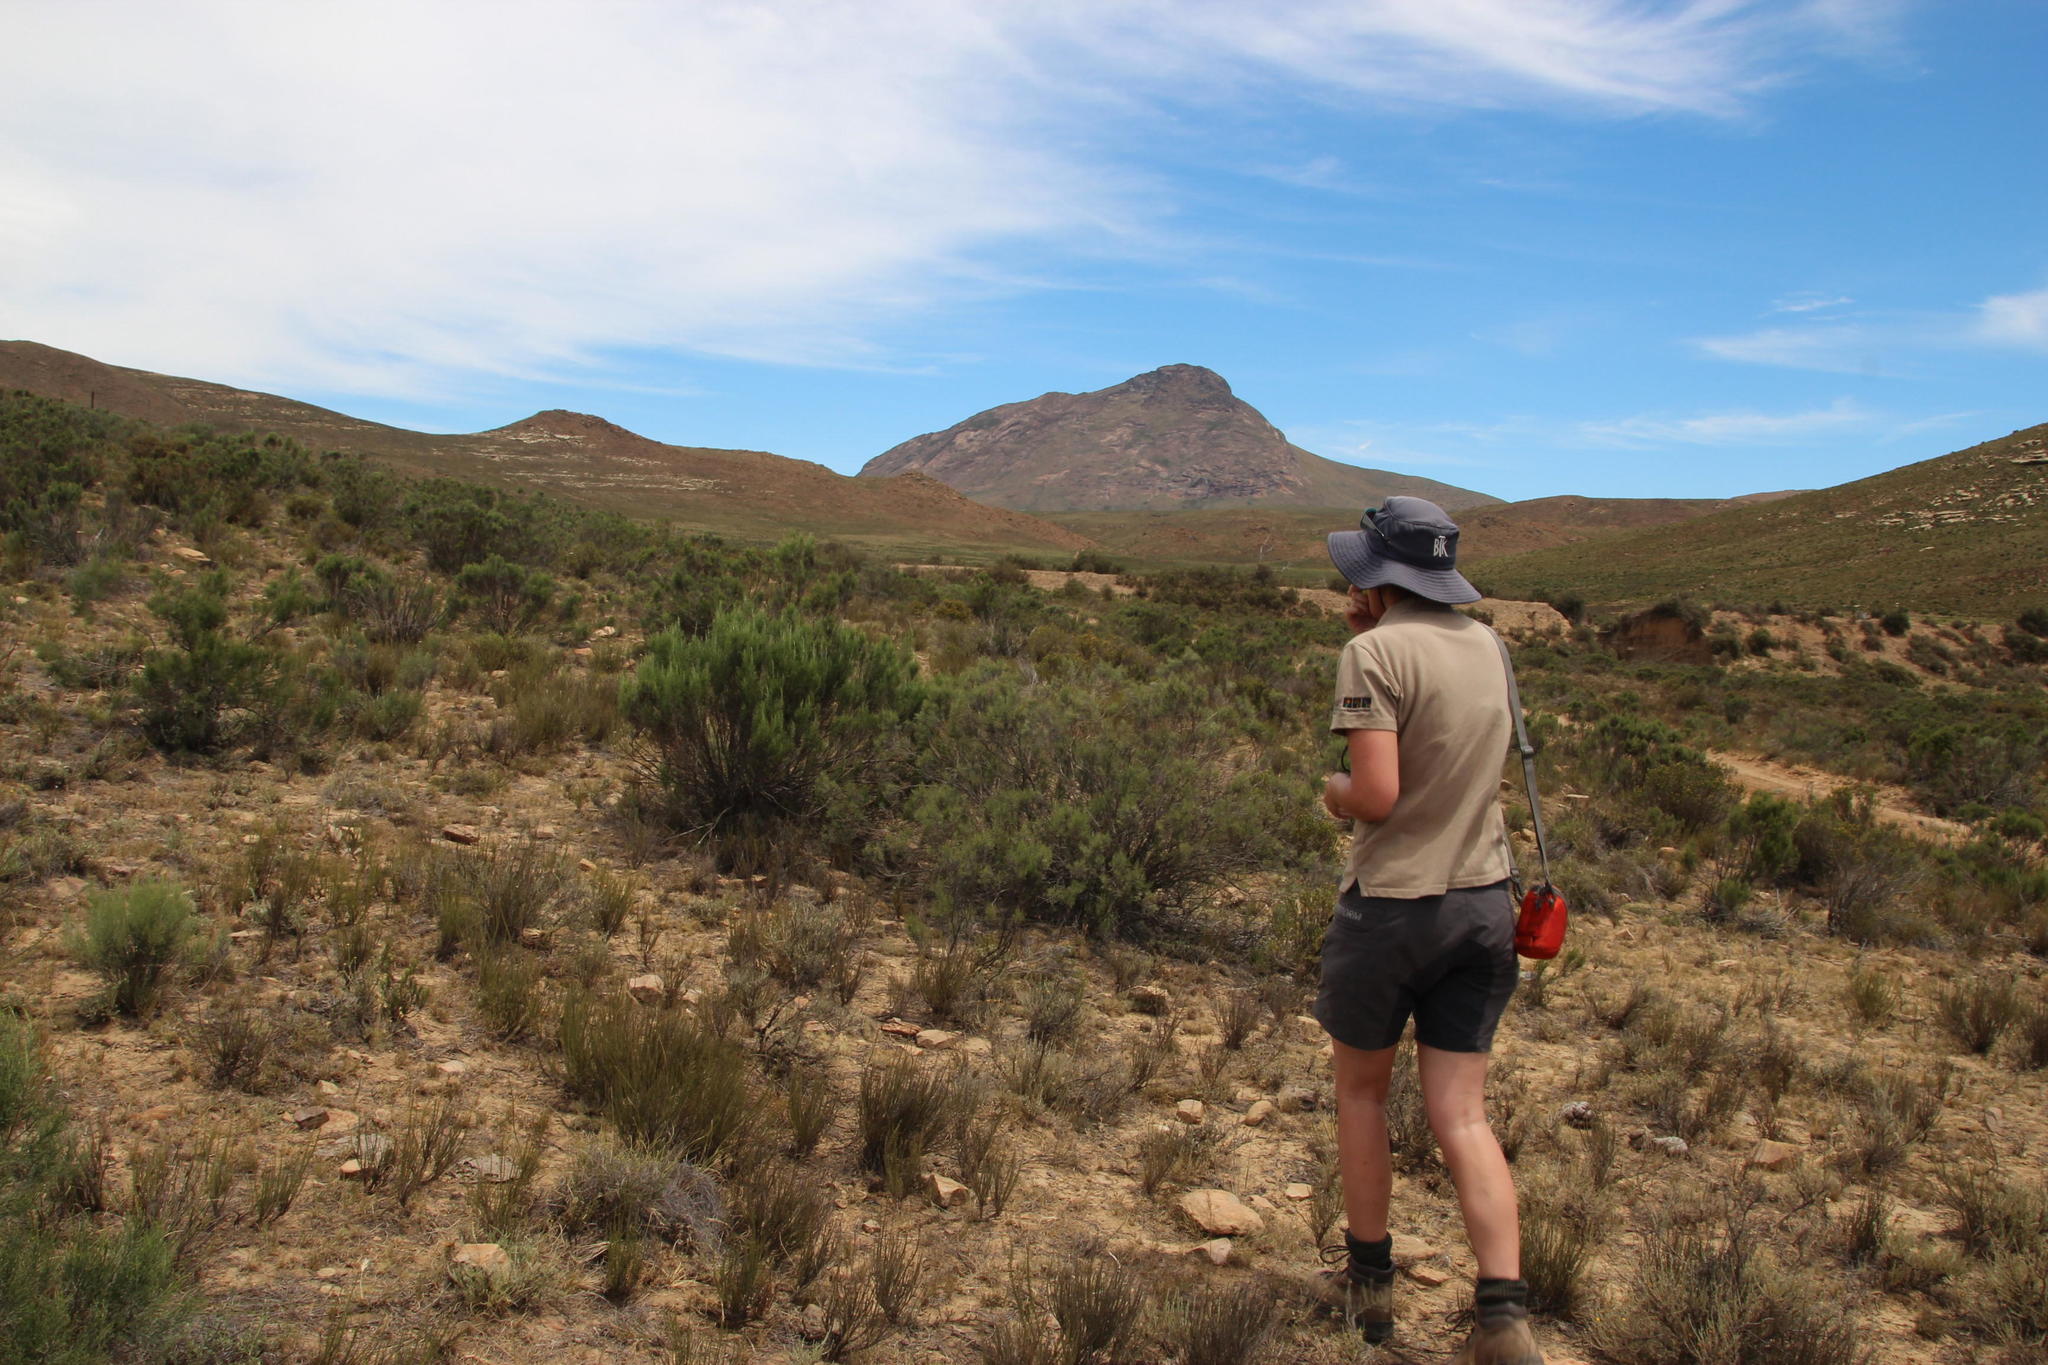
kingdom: Plantae
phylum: Tracheophyta
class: Magnoliopsida
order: Asterales
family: Asteraceae
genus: Dicerothamnus
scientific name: Dicerothamnus rhinocerotis
